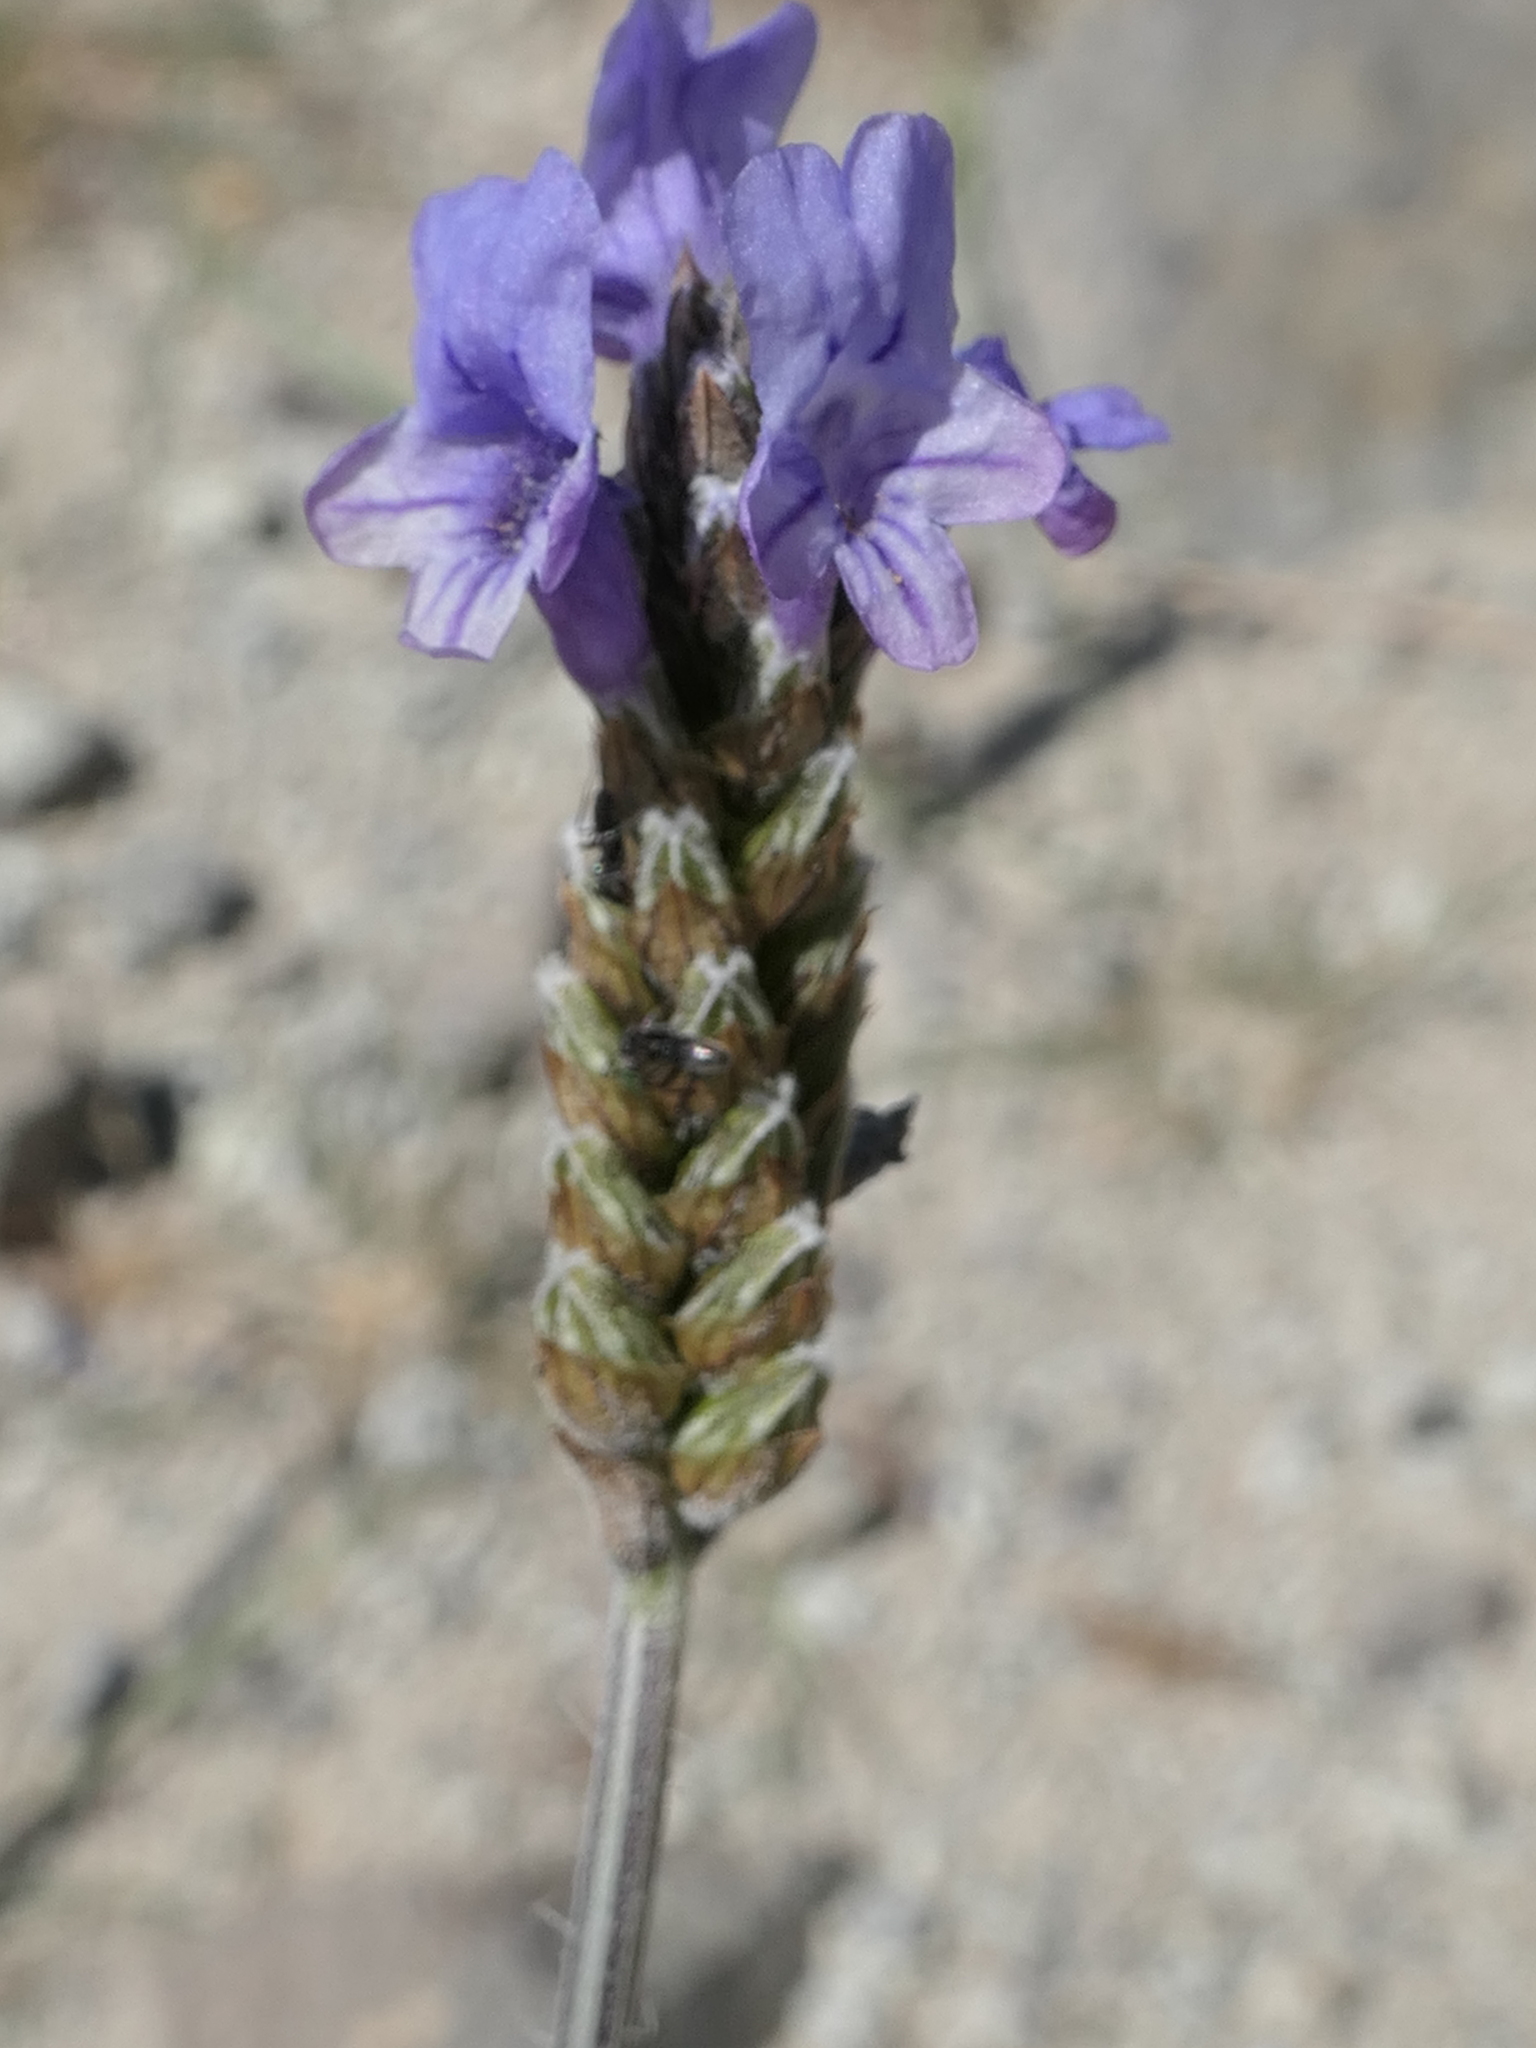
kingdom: Plantae
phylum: Tracheophyta
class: Magnoliopsida
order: Lamiales
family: Lamiaceae
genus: Lavandula
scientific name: Lavandula multifida
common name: Fern-leaf lavender
